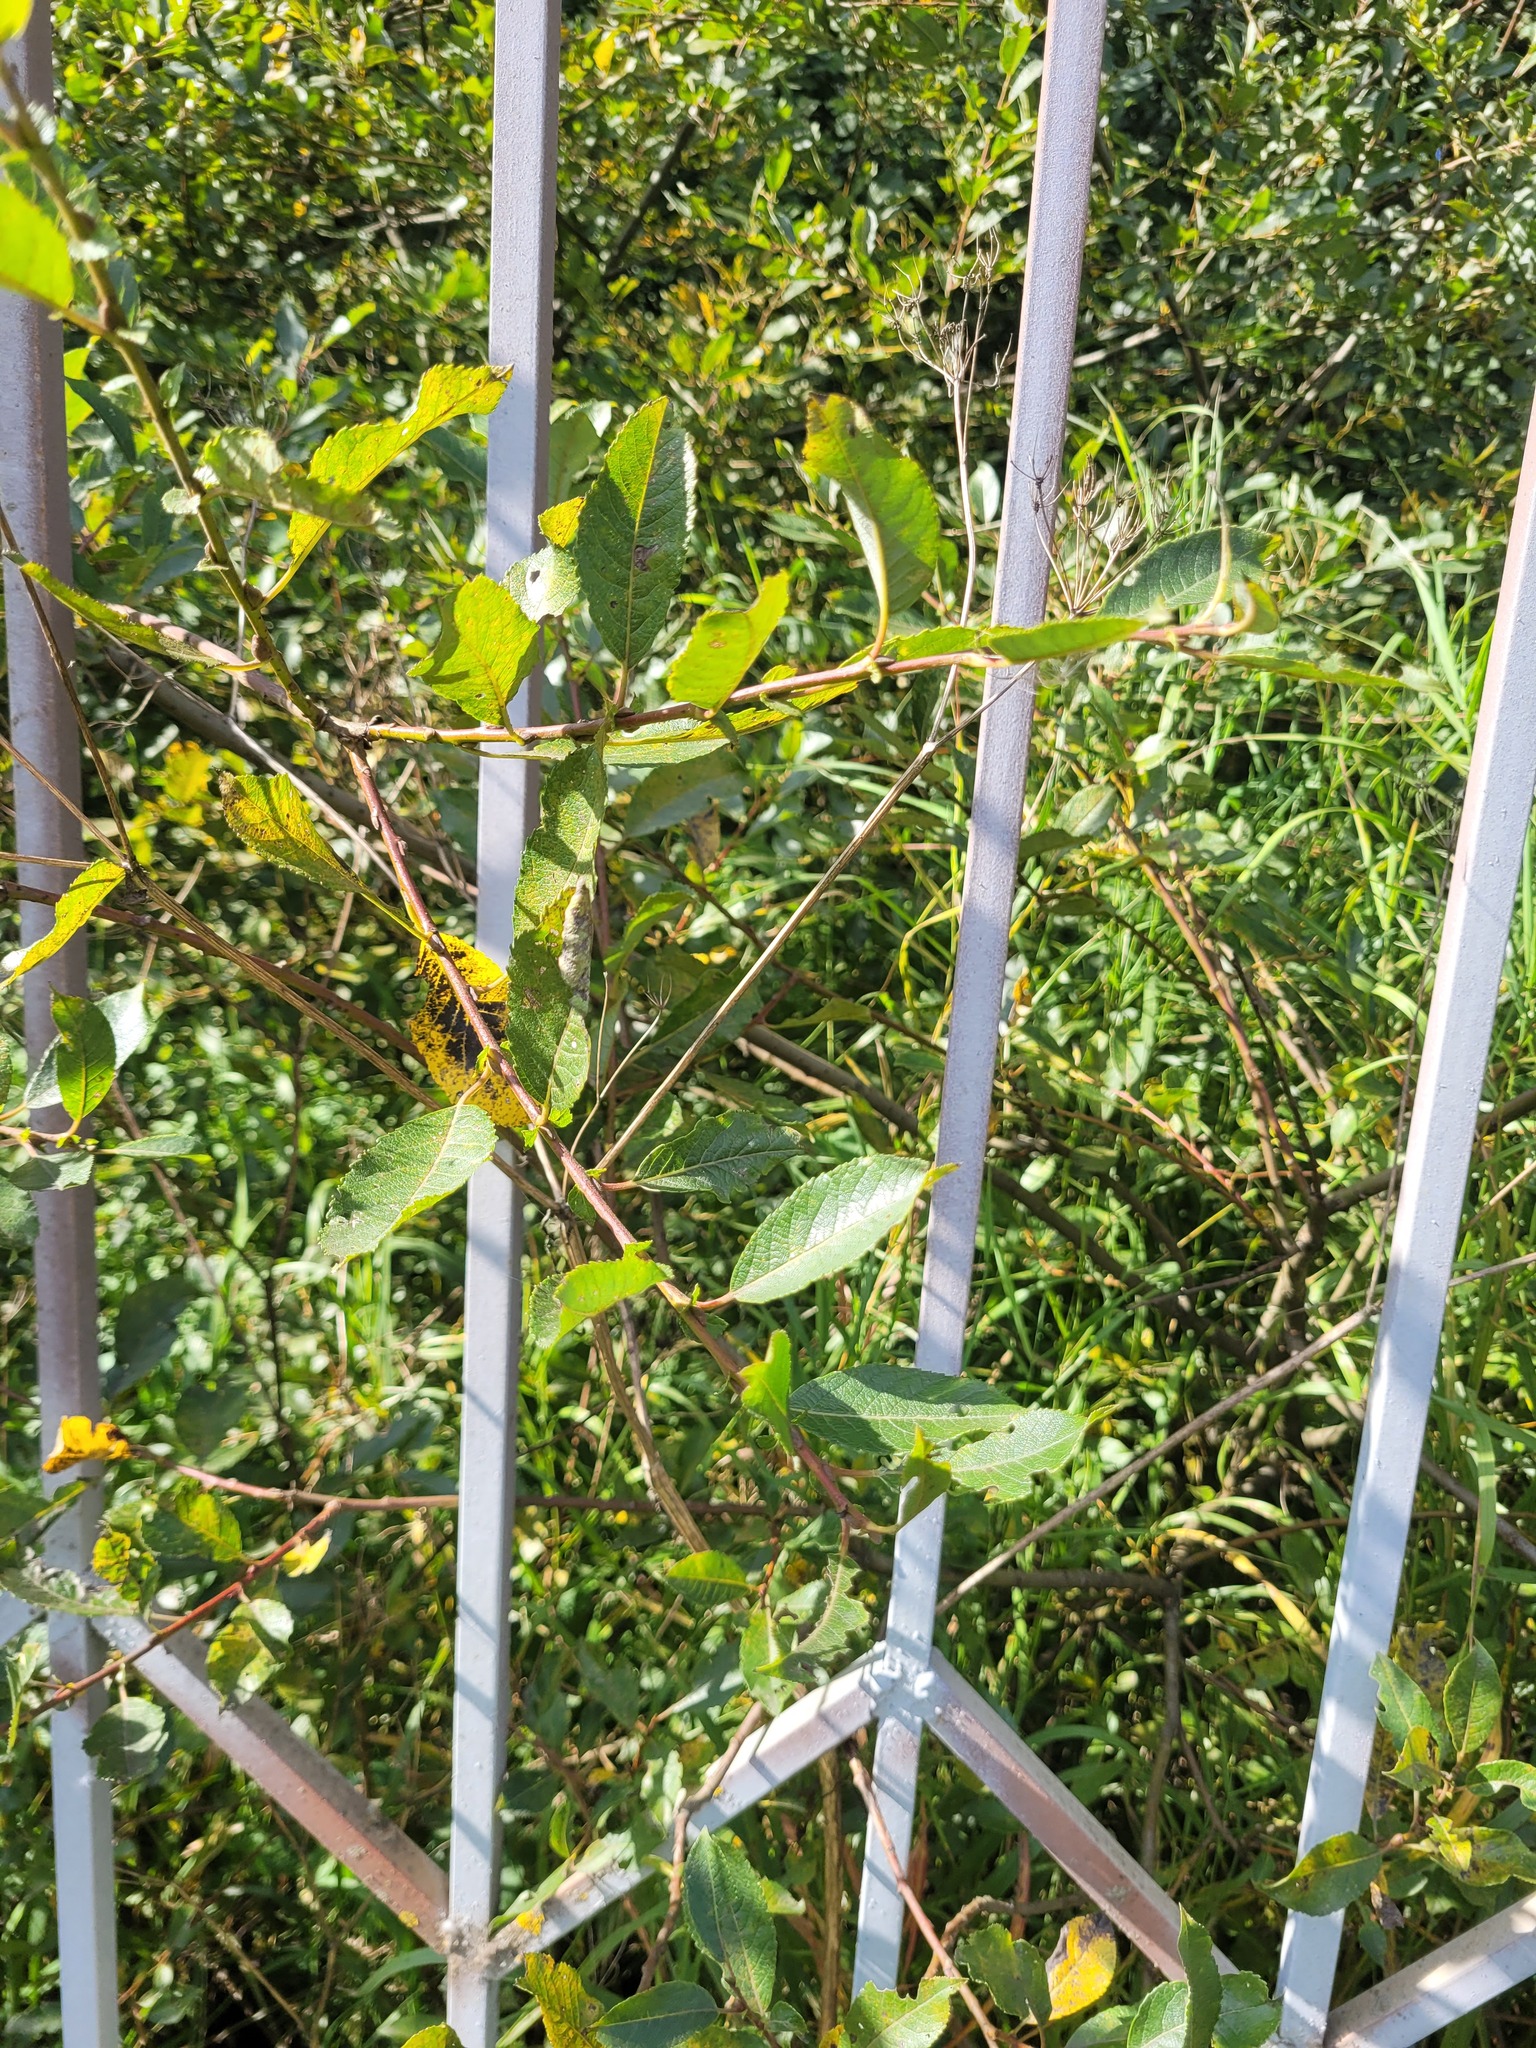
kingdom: Plantae
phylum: Tracheophyta
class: Magnoliopsida
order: Malpighiales
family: Salicaceae
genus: Salix
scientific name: Salix myrsinifolia
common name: Dark-leaved willow
